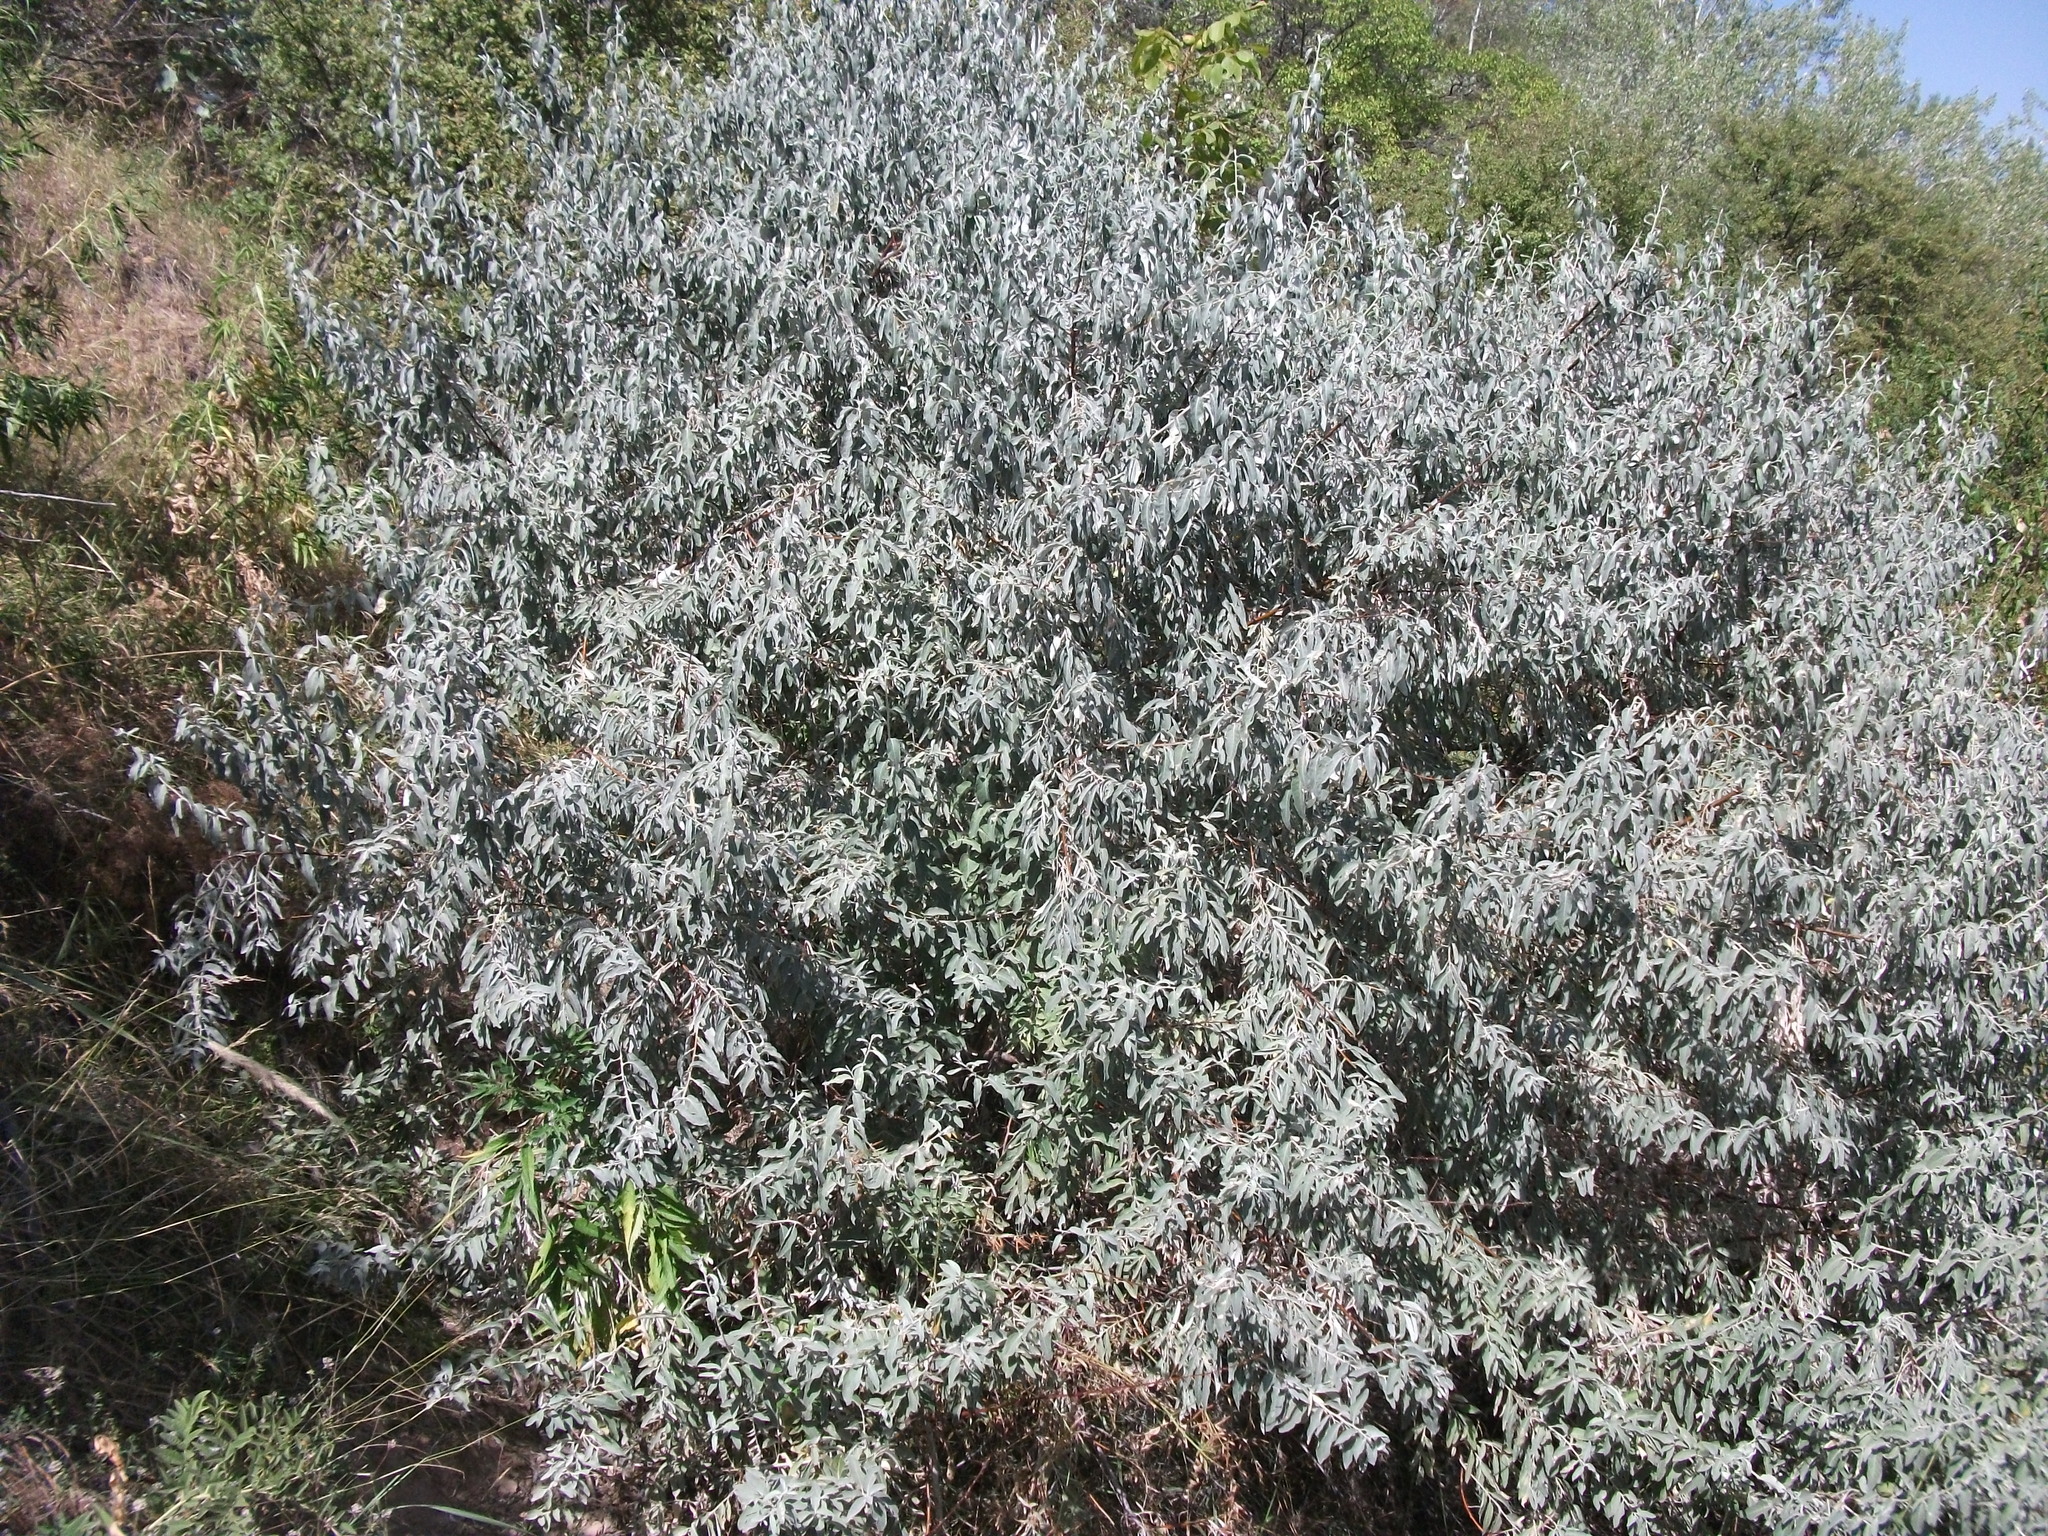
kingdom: Plantae
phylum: Tracheophyta
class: Magnoliopsida
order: Rosales
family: Elaeagnaceae
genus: Elaeagnus
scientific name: Elaeagnus angustifolia
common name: Russian olive
